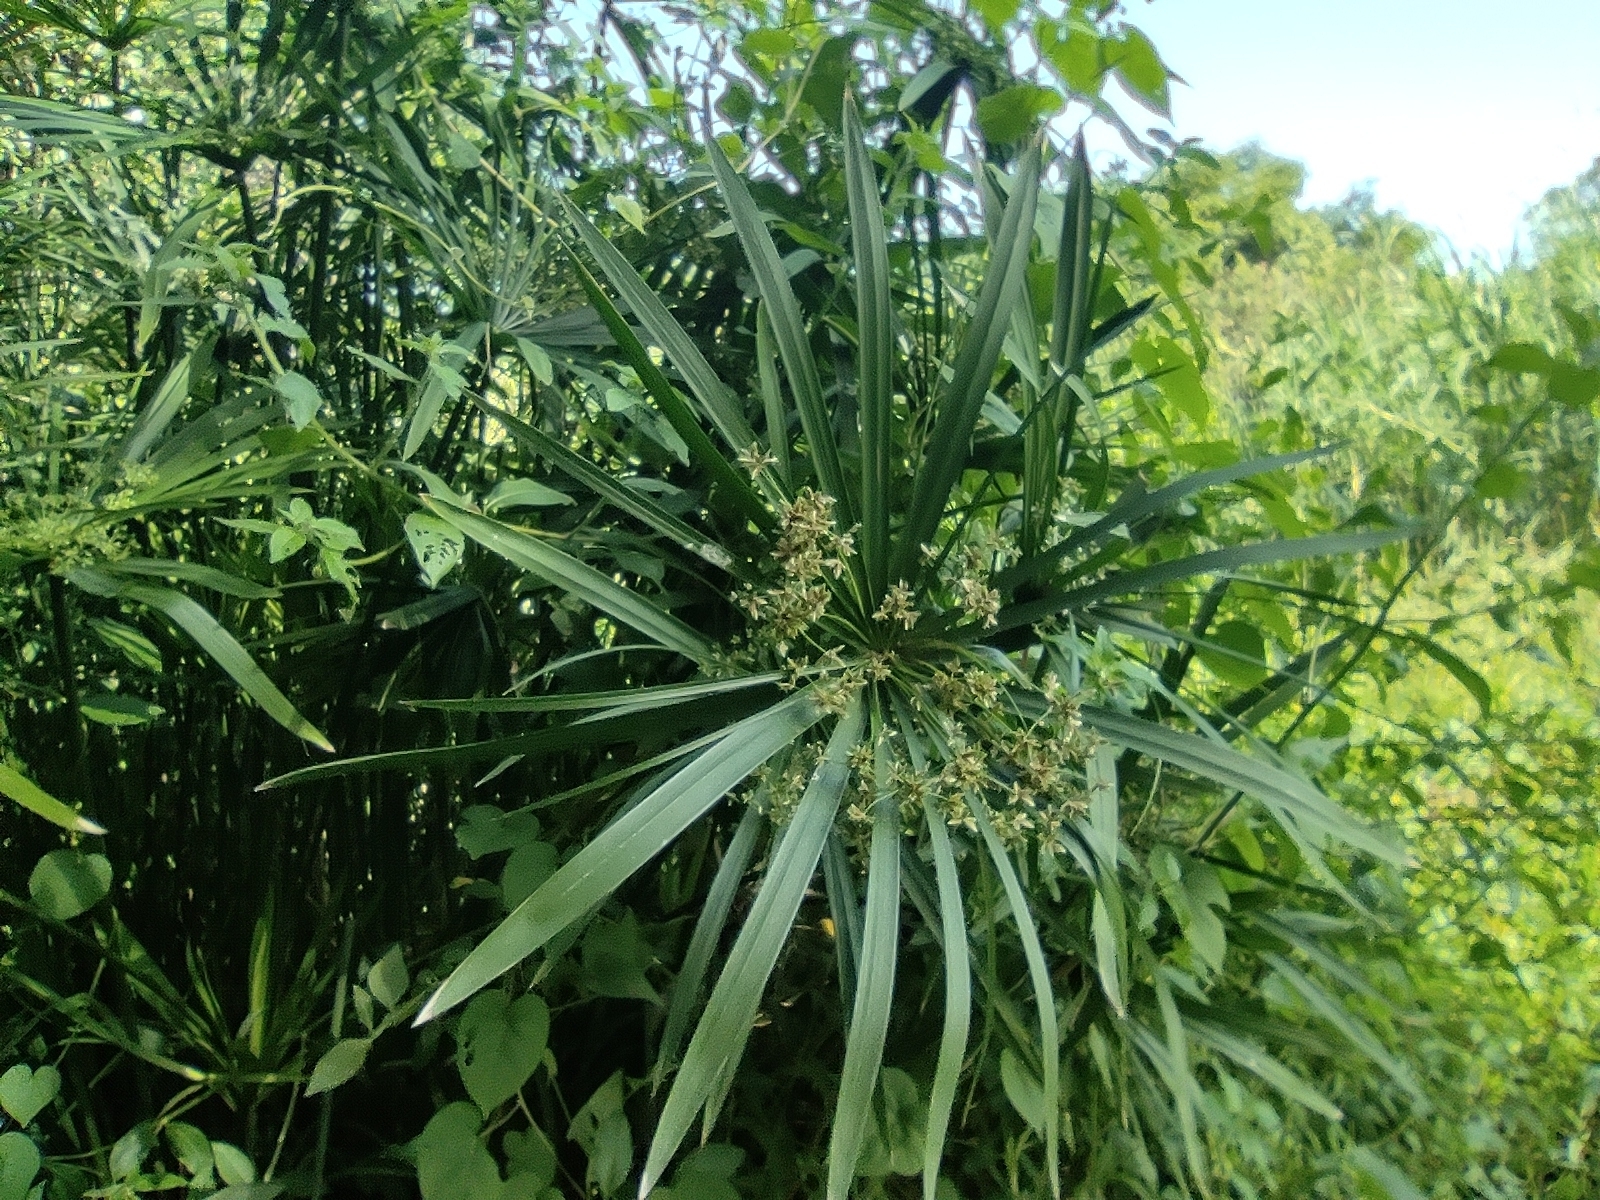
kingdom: Plantae
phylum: Tracheophyta
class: Liliopsida
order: Poales
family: Cyperaceae
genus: Cyperus
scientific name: Cyperus alternifolius
